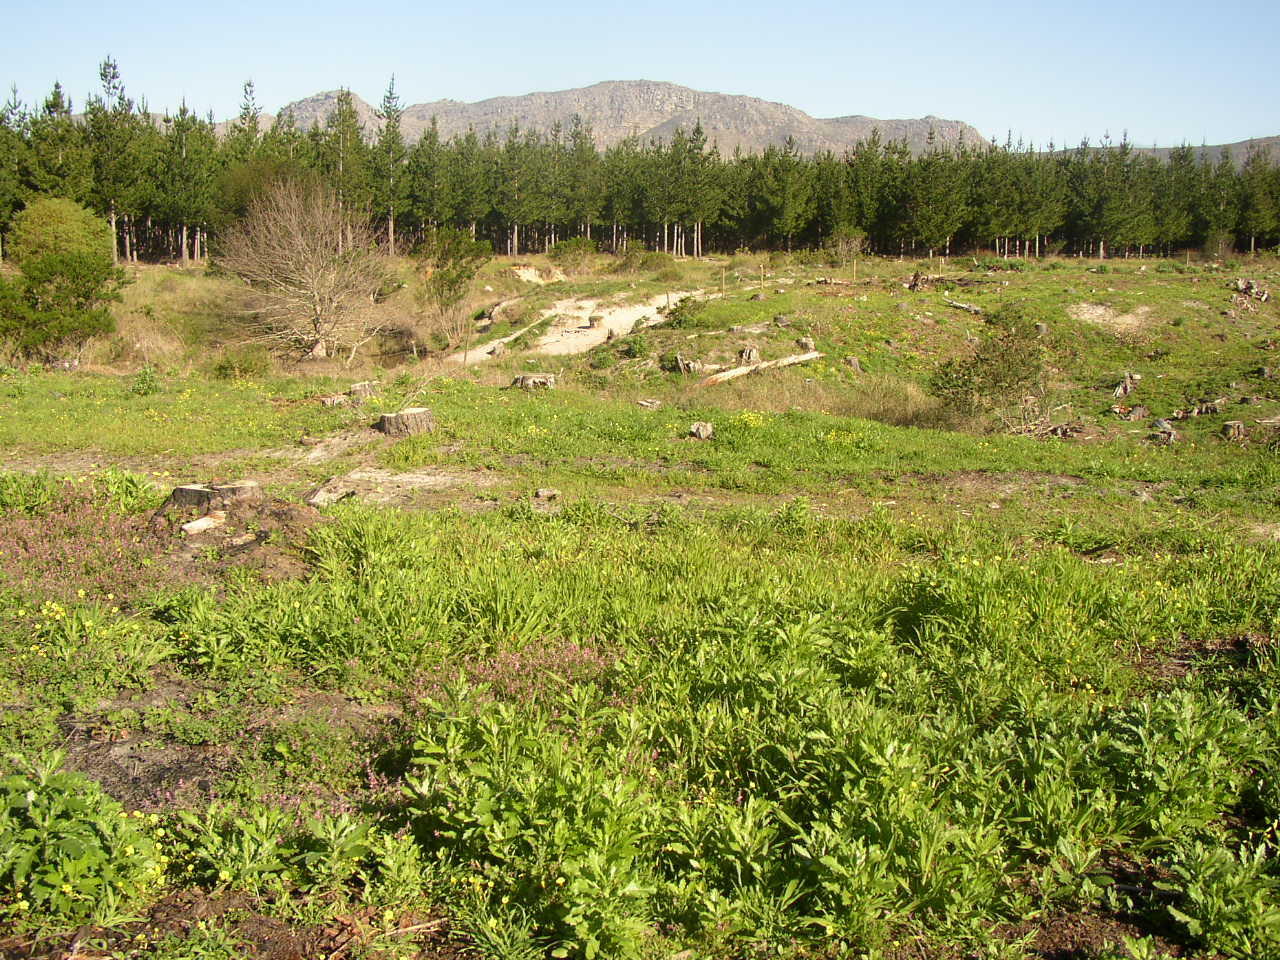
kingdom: Plantae
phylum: Tracheophyta
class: Magnoliopsida
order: Asterales
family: Asteraceae
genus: Senecio
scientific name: Senecio pterophorus
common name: Shoddy ragwort
